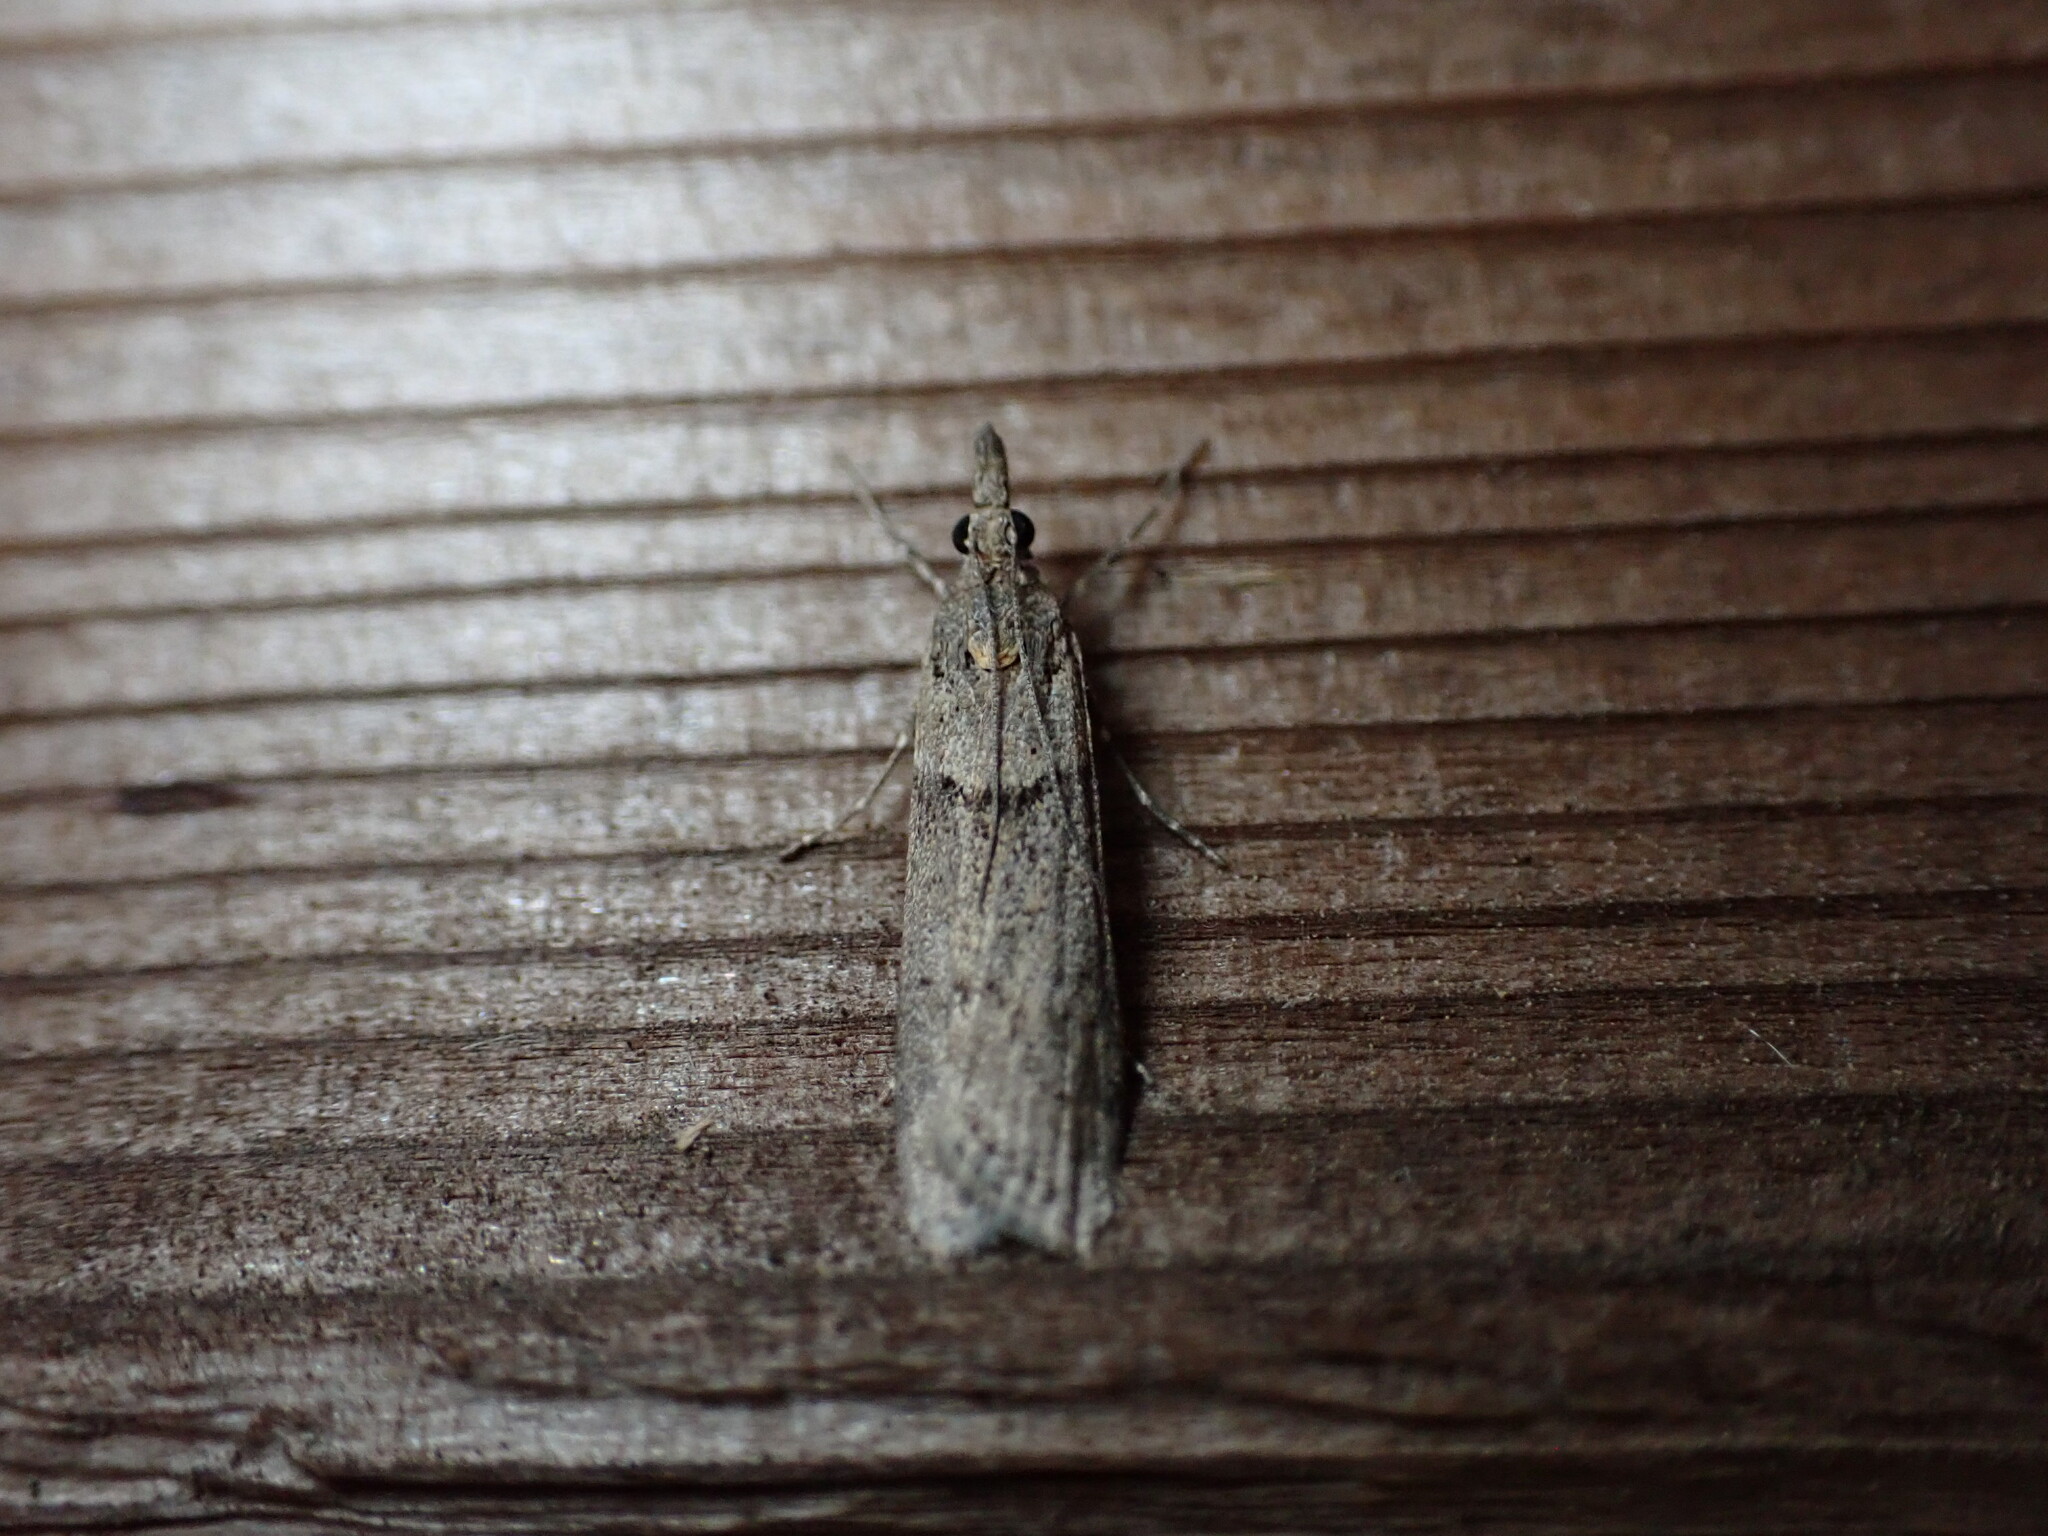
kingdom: Animalia
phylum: Arthropoda
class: Insecta
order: Lepidoptera
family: Crambidae
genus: Eudonia
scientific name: Eudonia leptalea
